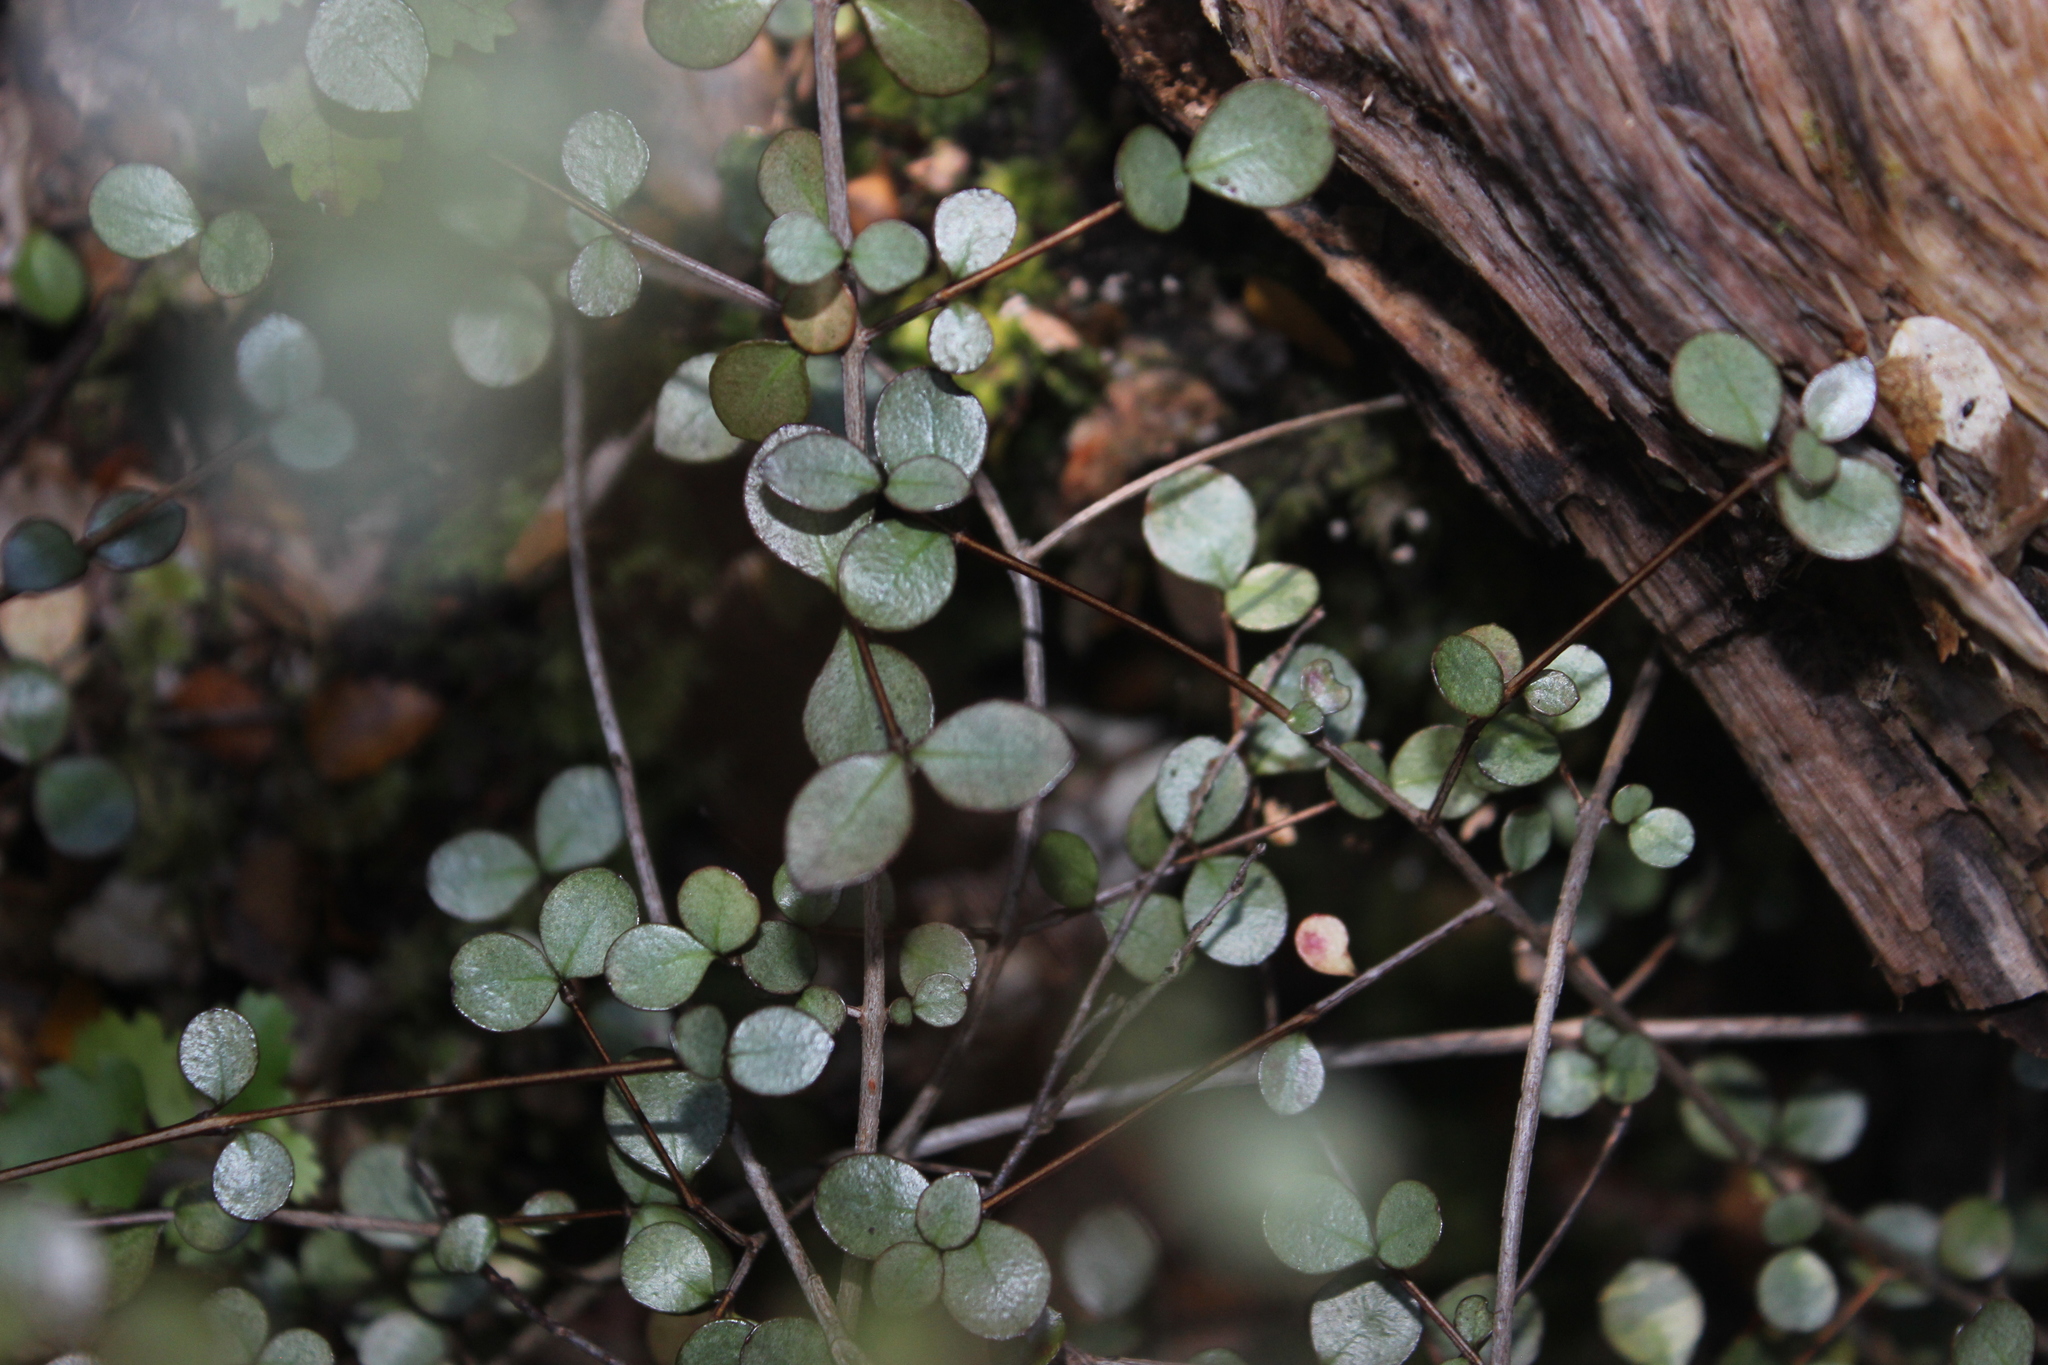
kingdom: Plantae
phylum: Tracheophyta
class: Magnoliopsida
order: Myrtales
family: Myrtaceae
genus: Neomyrtus
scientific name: Neomyrtus pedunculata
